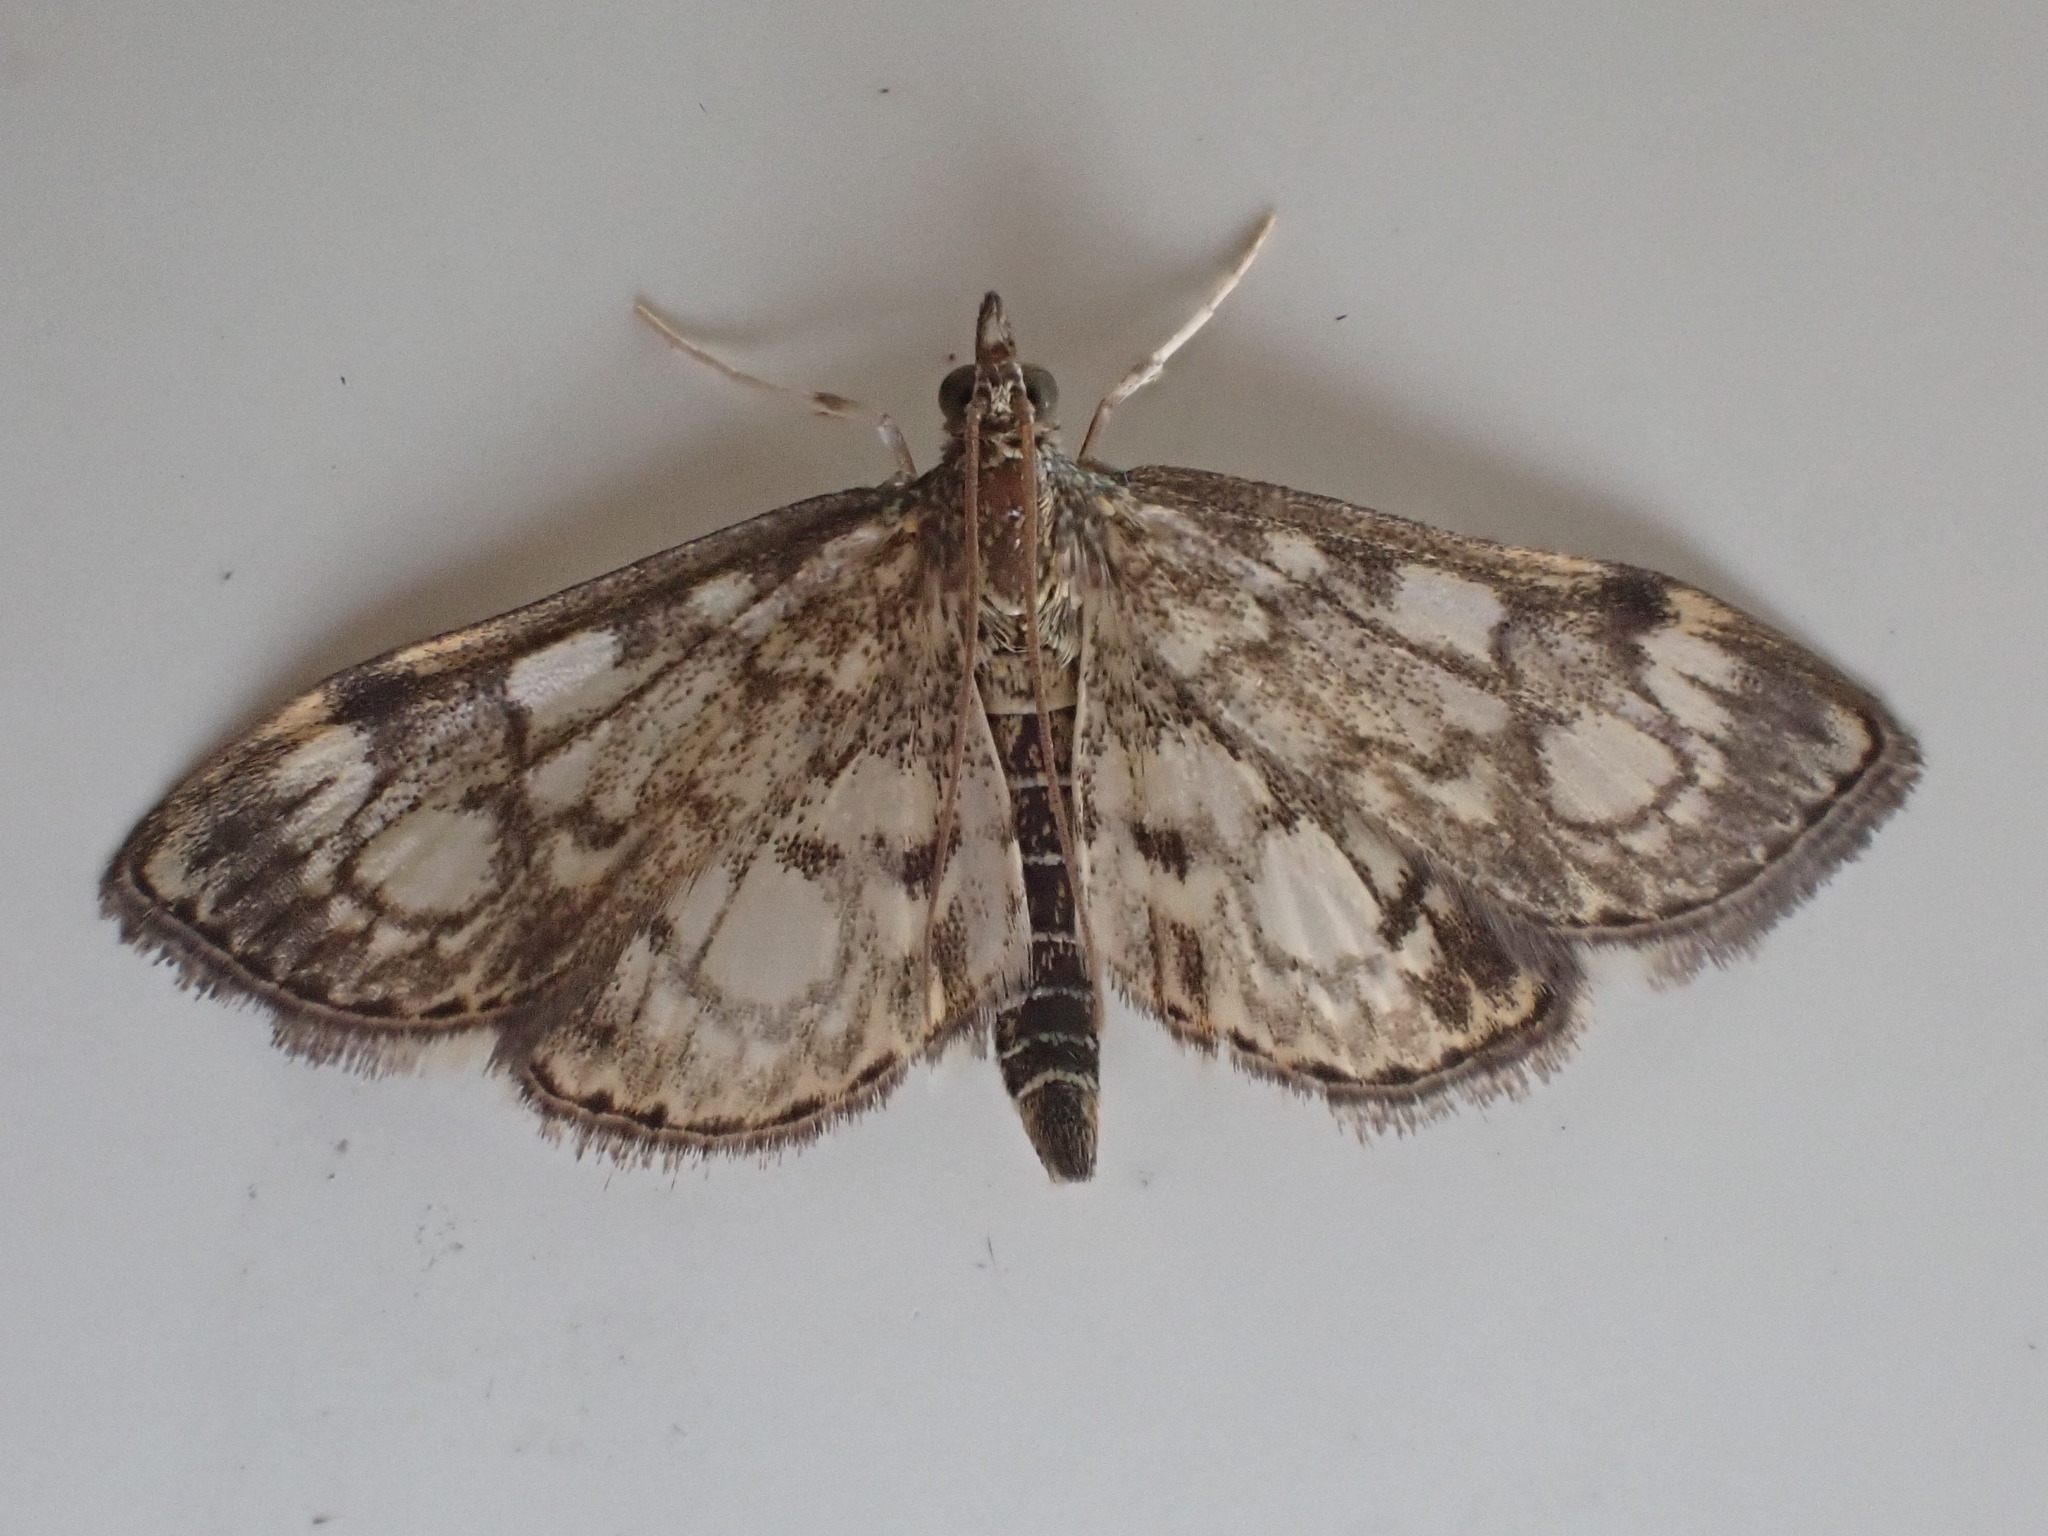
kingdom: Animalia
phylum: Arthropoda
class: Insecta
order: Lepidoptera
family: Crambidae
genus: Anania
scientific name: Anania coronata
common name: Elder pearl
